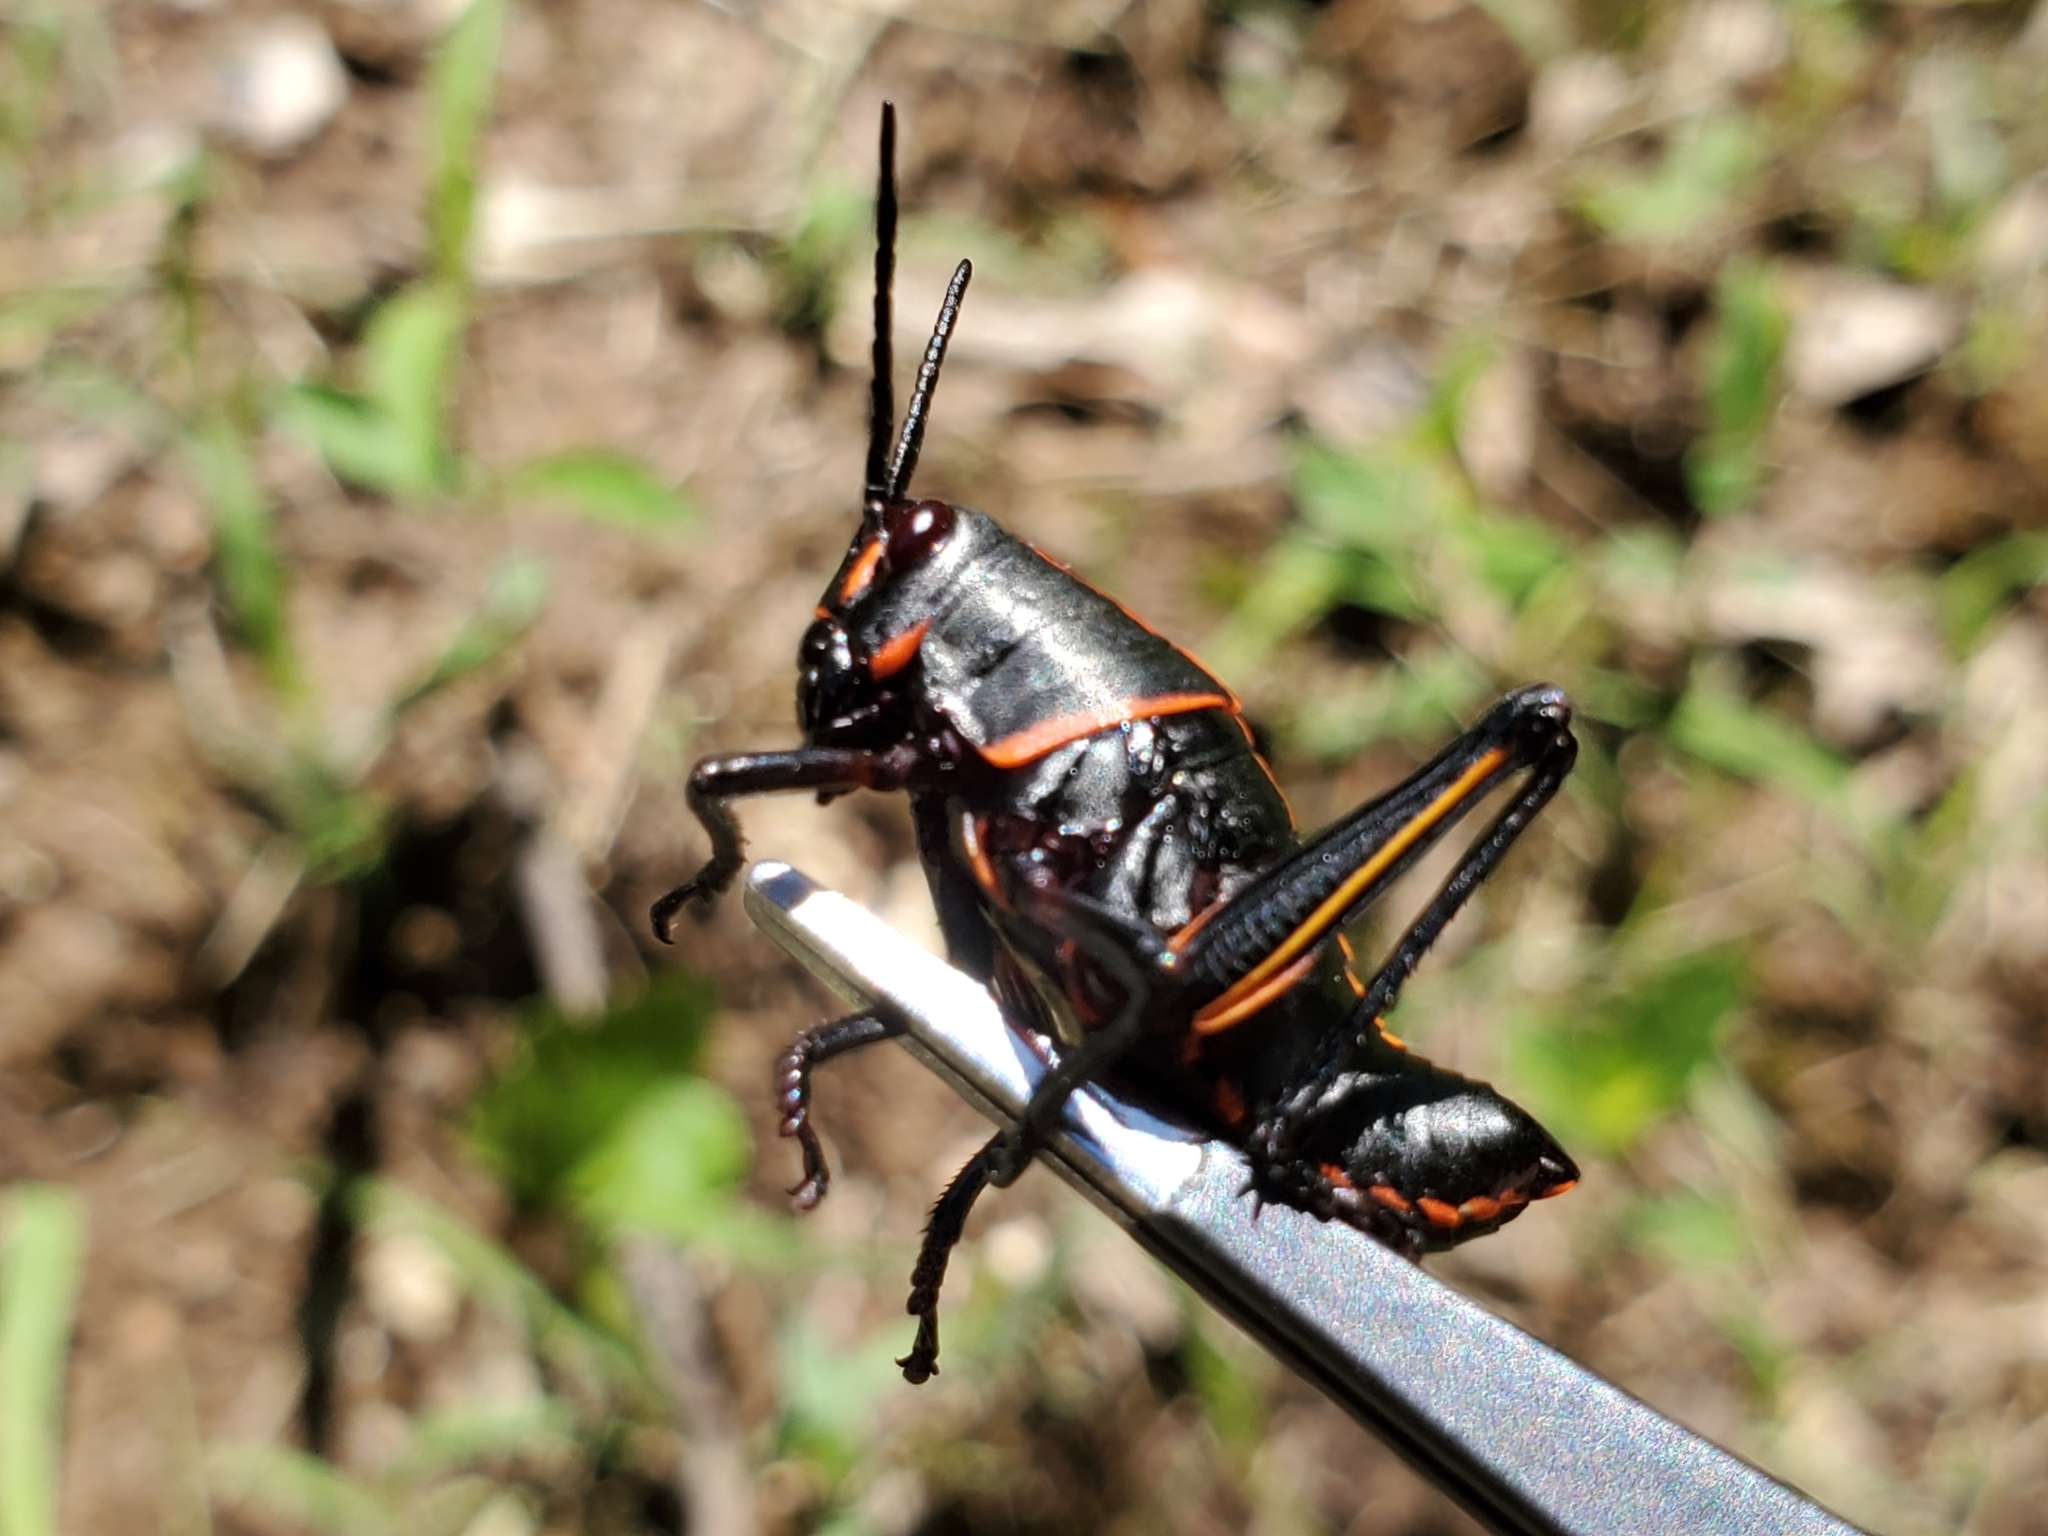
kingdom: Animalia
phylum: Arthropoda
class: Insecta
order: Orthoptera
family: Romaleidae
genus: Romalea
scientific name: Romalea microptera
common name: Eastern lubber grasshopper
